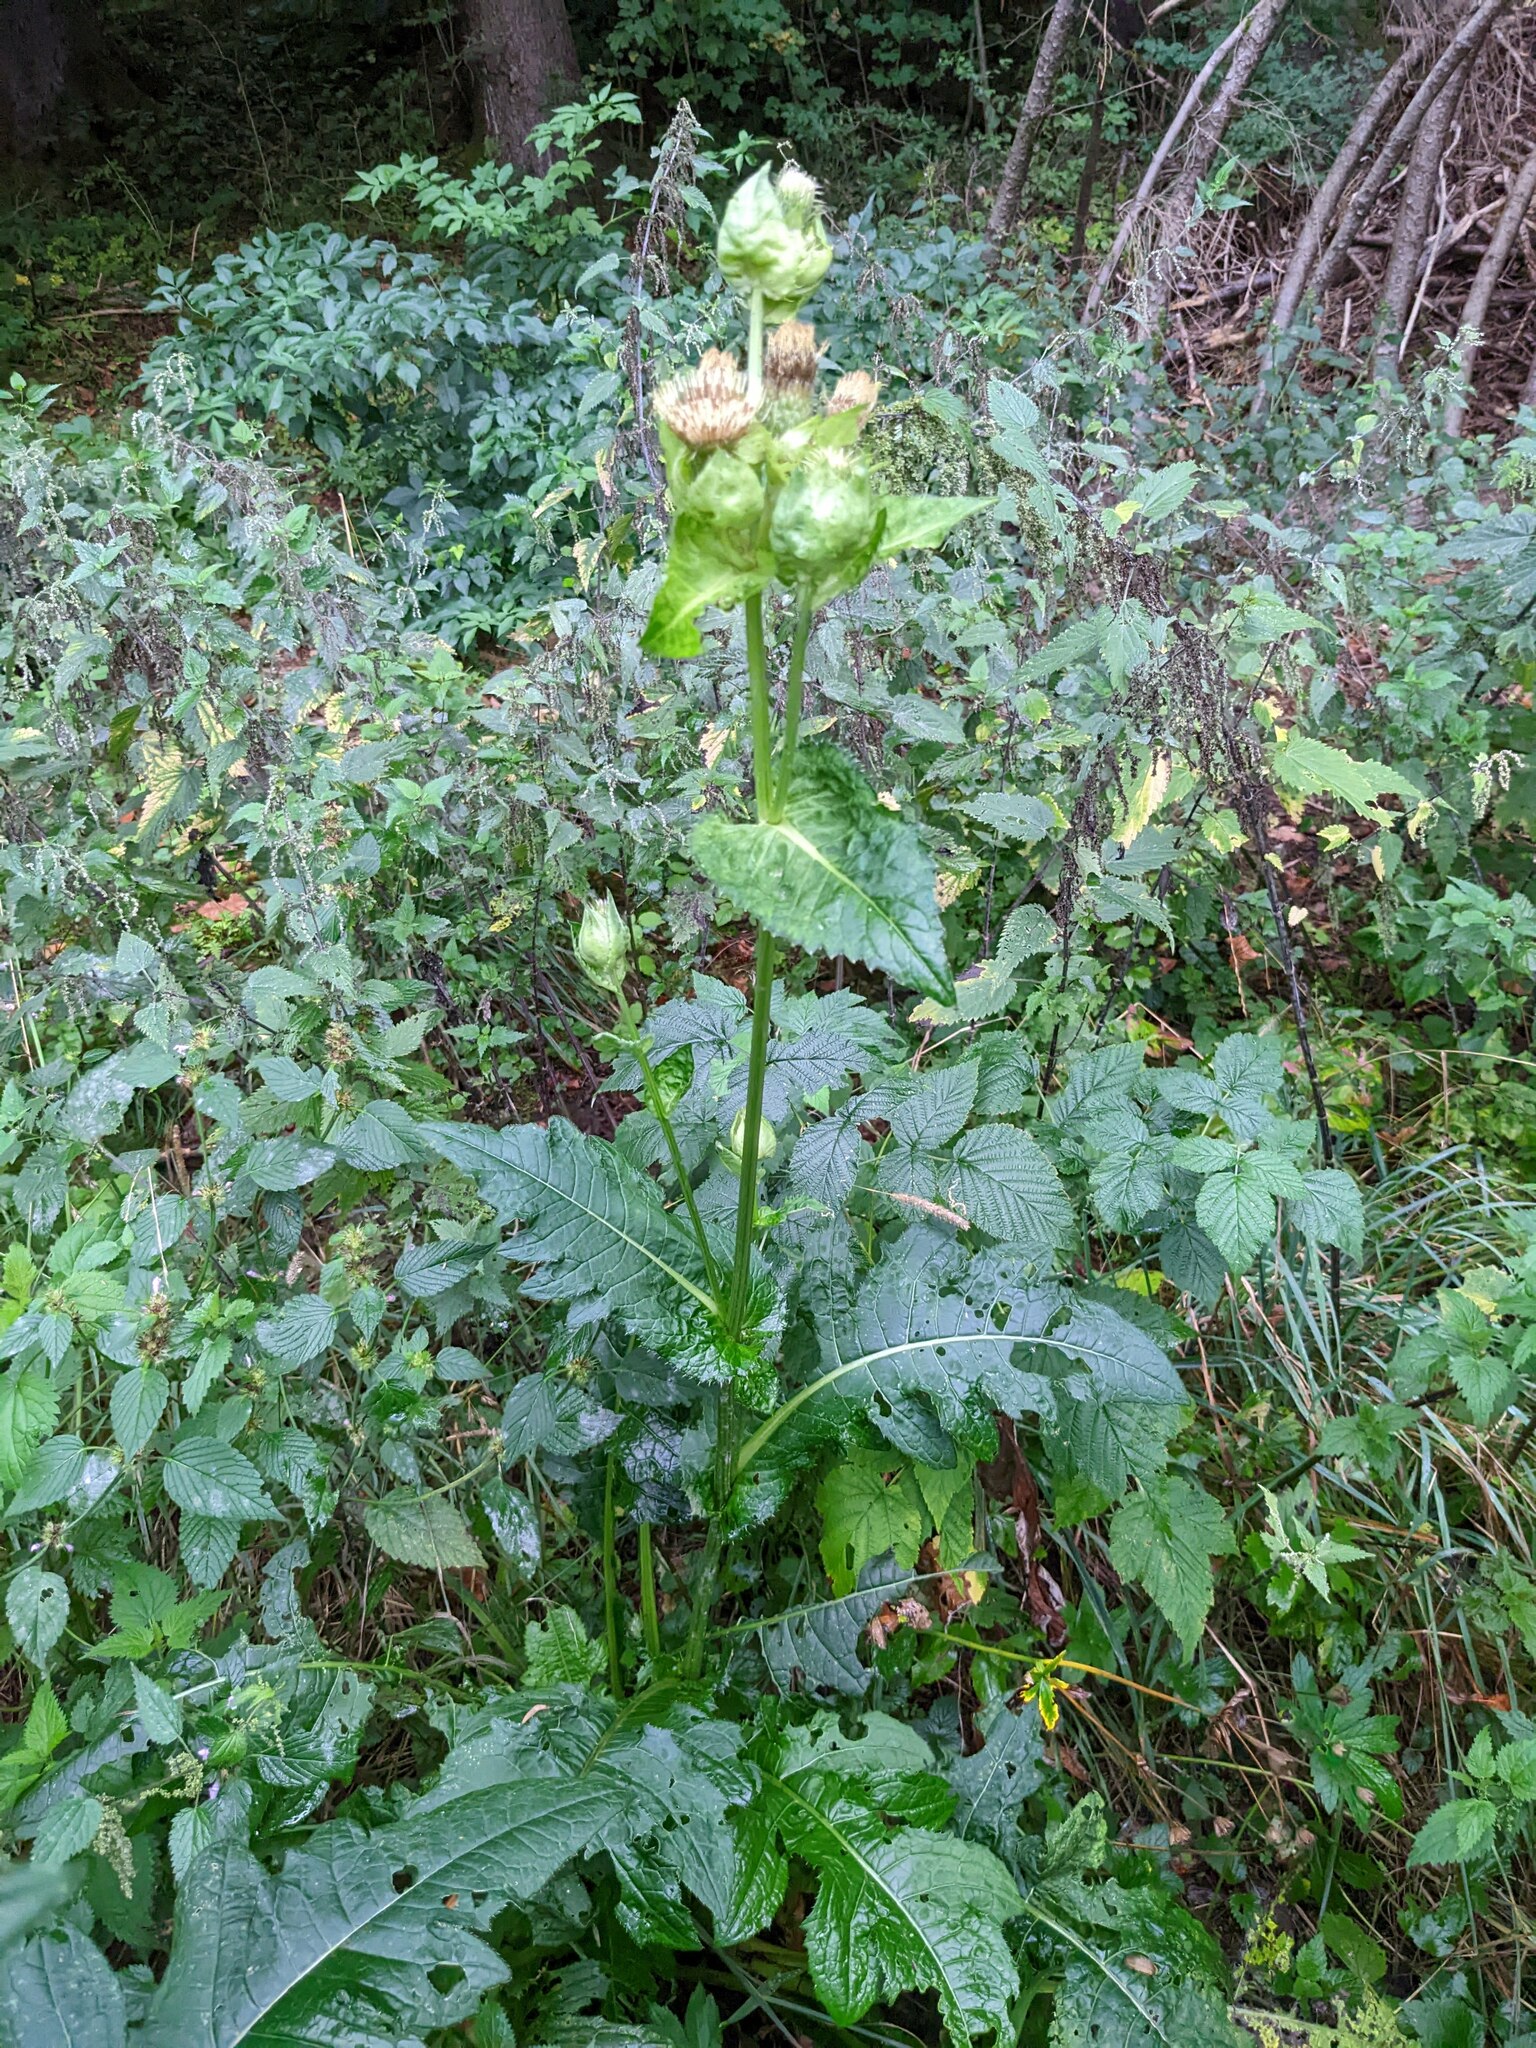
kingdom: Plantae
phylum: Tracheophyta
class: Magnoliopsida
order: Asterales
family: Asteraceae
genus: Cirsium
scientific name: Cirsium oleraceum
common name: Cabbage thistle
